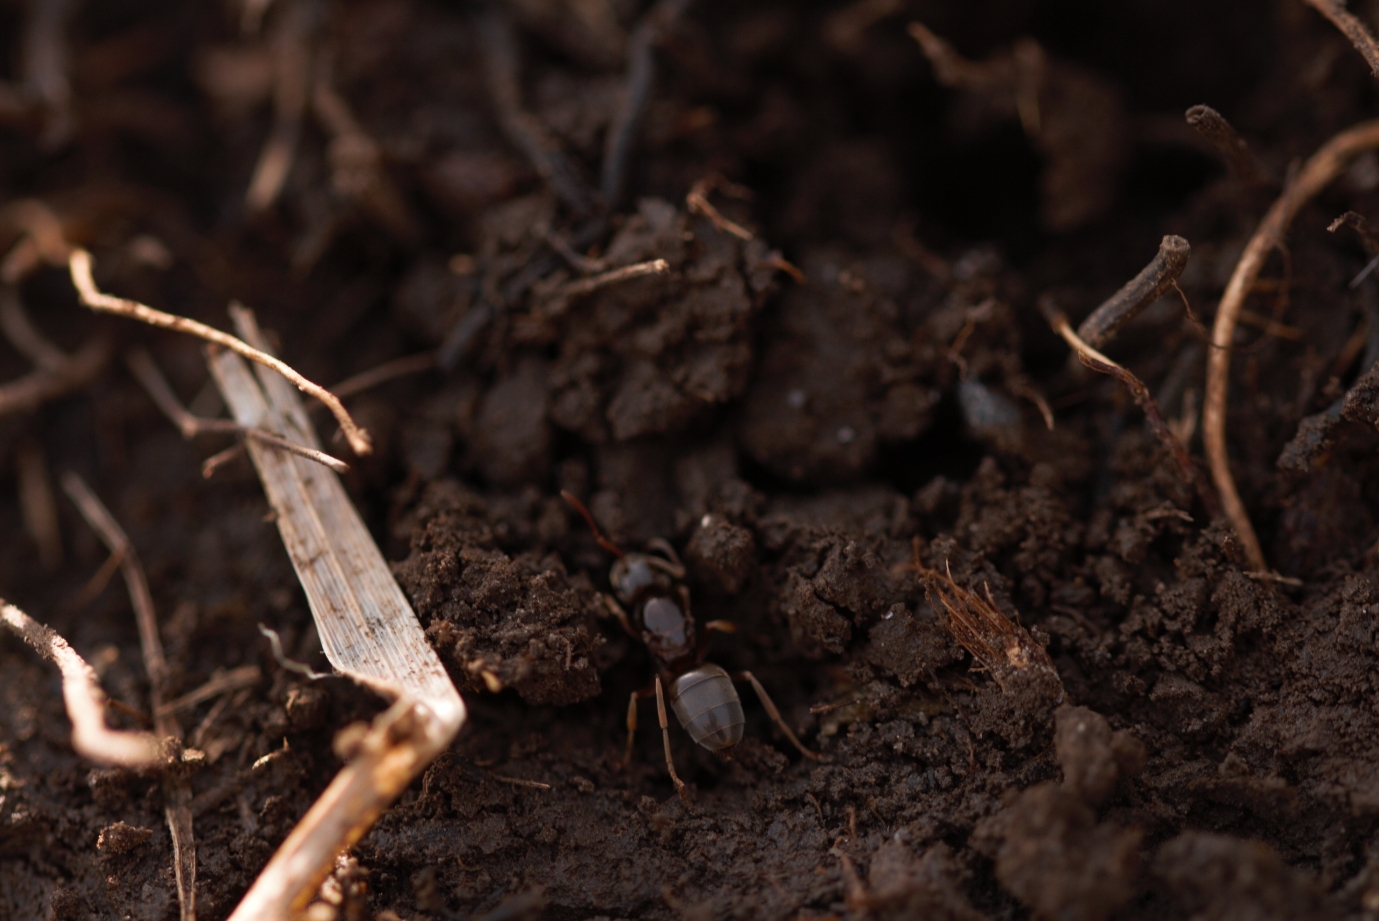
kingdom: Animalia
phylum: Arthropoda
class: Insecta
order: Hymenoptera
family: Formicidae
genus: Lasius
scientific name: Lasius
